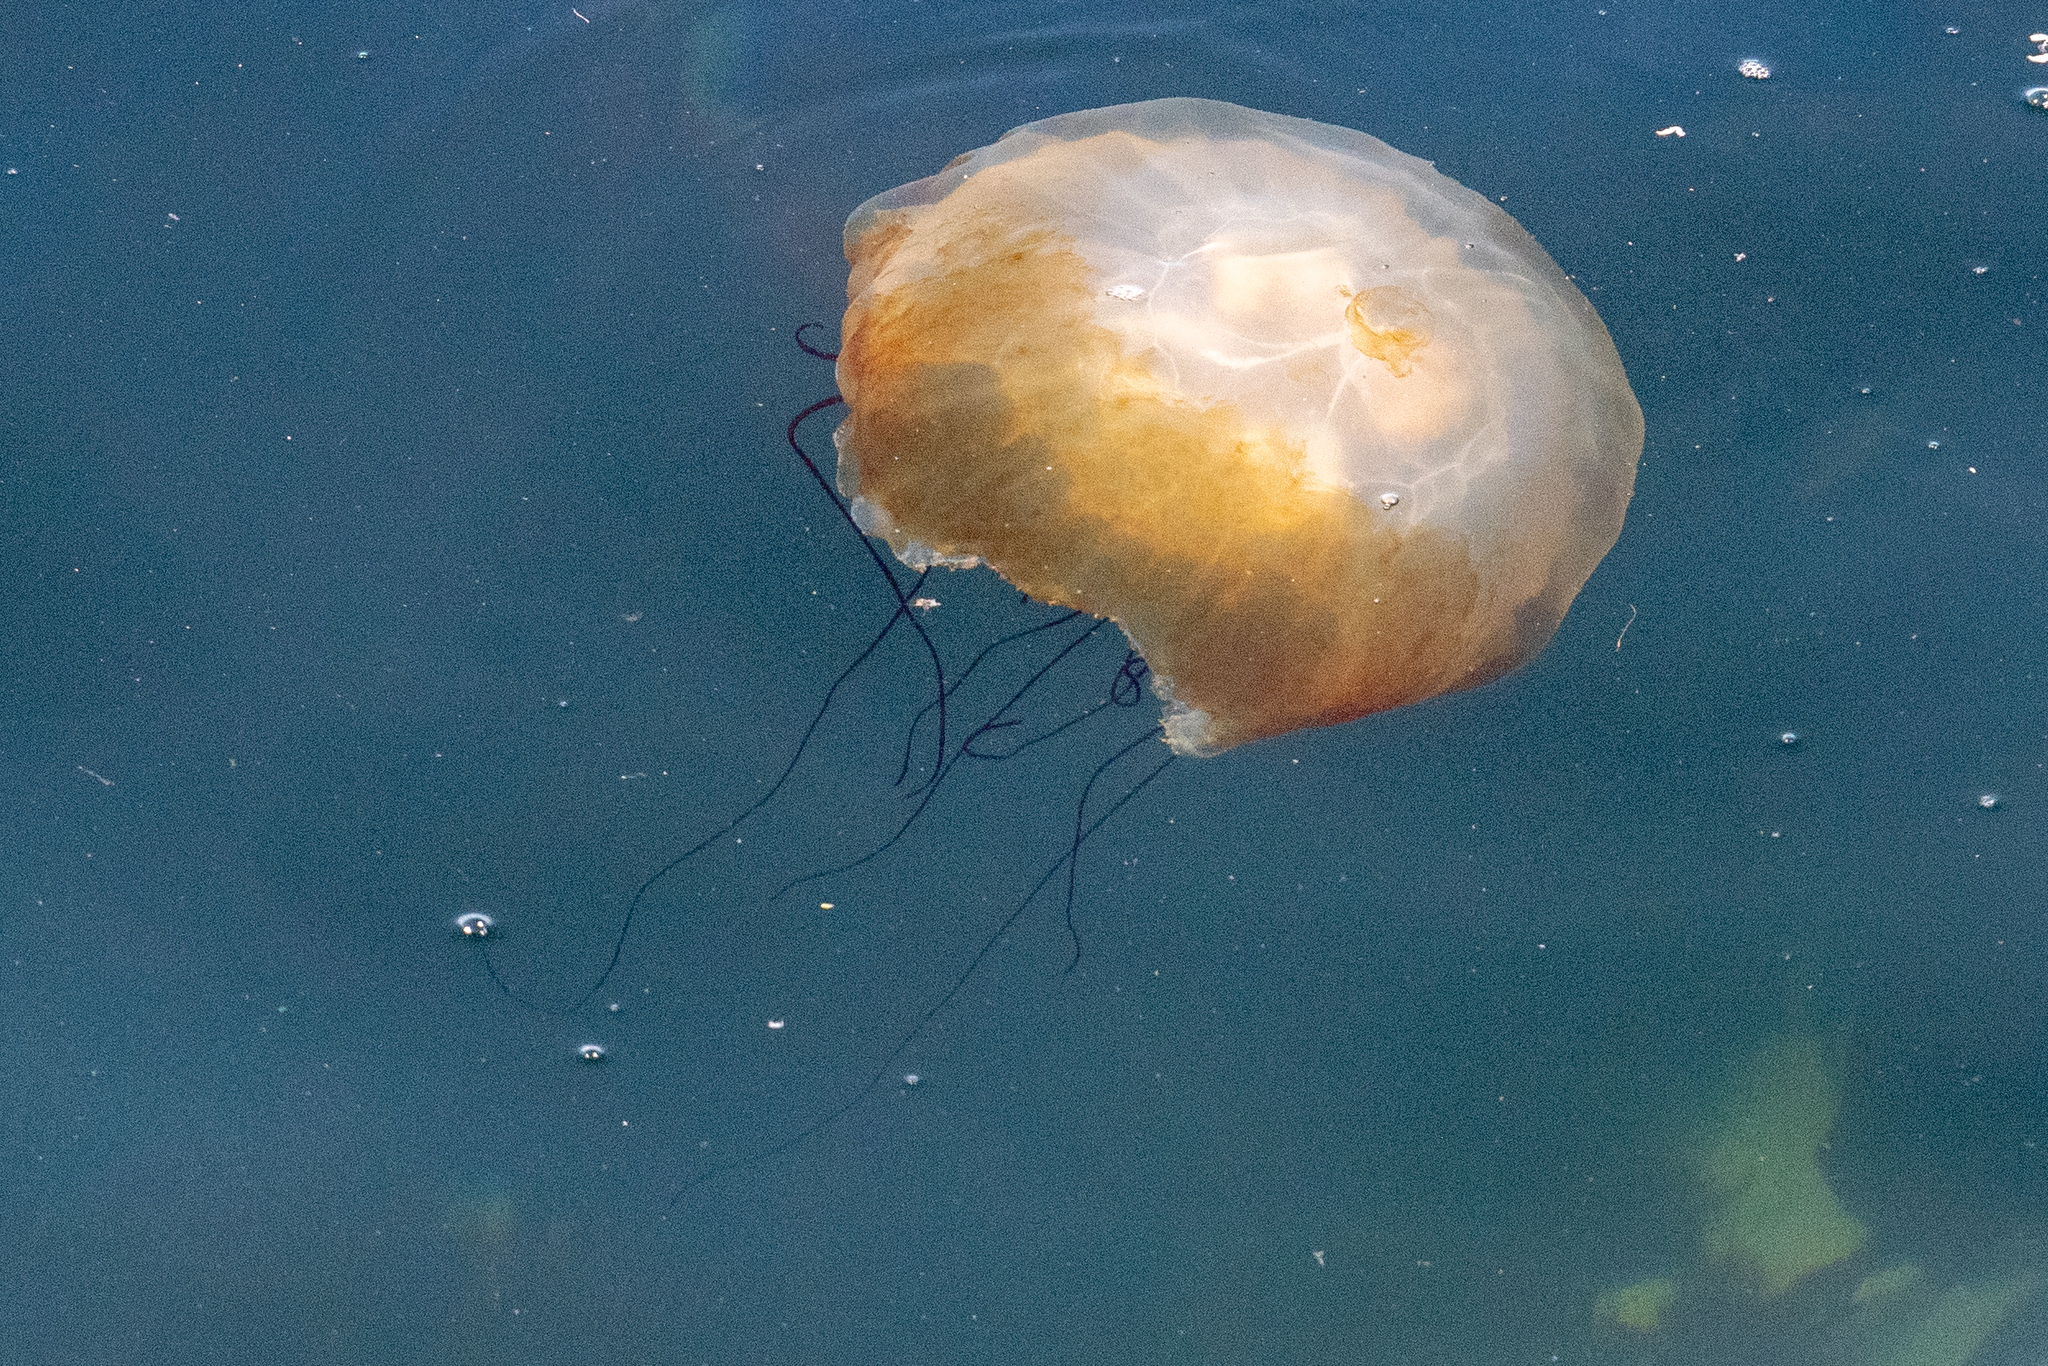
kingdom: Animalia
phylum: Cnidaria
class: Scyphozoa
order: Semaeostomeae
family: Pelagiidae
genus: Chrysaora
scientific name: Chrysaora fuscescens
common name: Sea nettle
